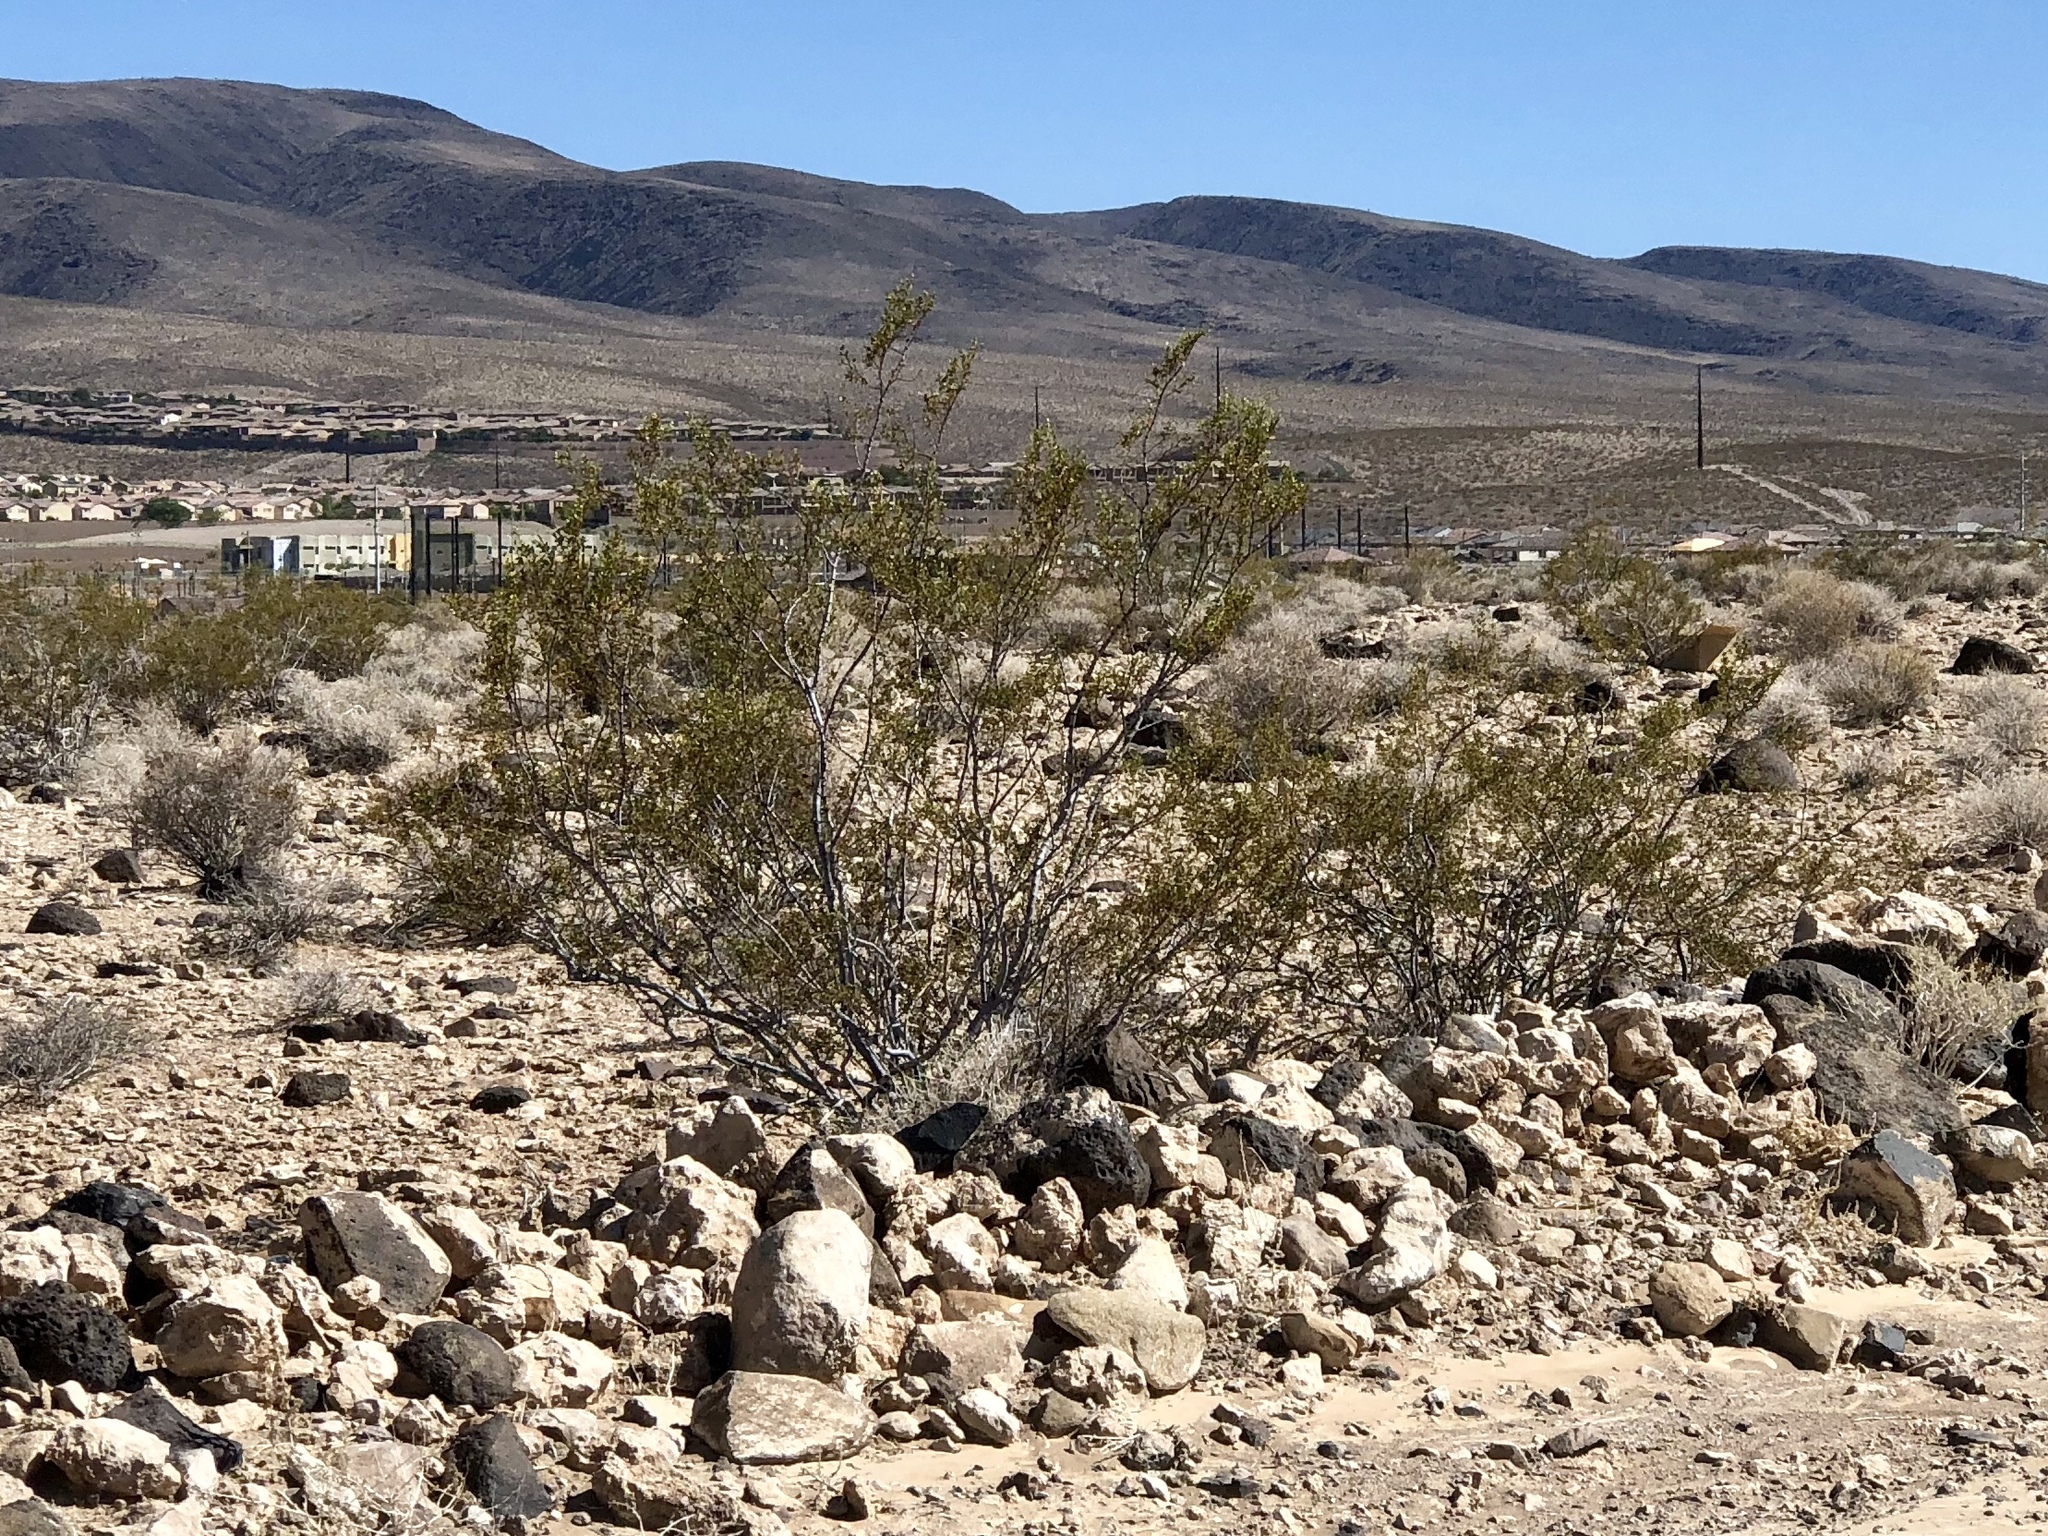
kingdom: Plantae
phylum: Tracheophyta
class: Magnoliopsida
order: Zygophyllales
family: Zygophyllaceae
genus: Larrea
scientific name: Larrea tridentata
